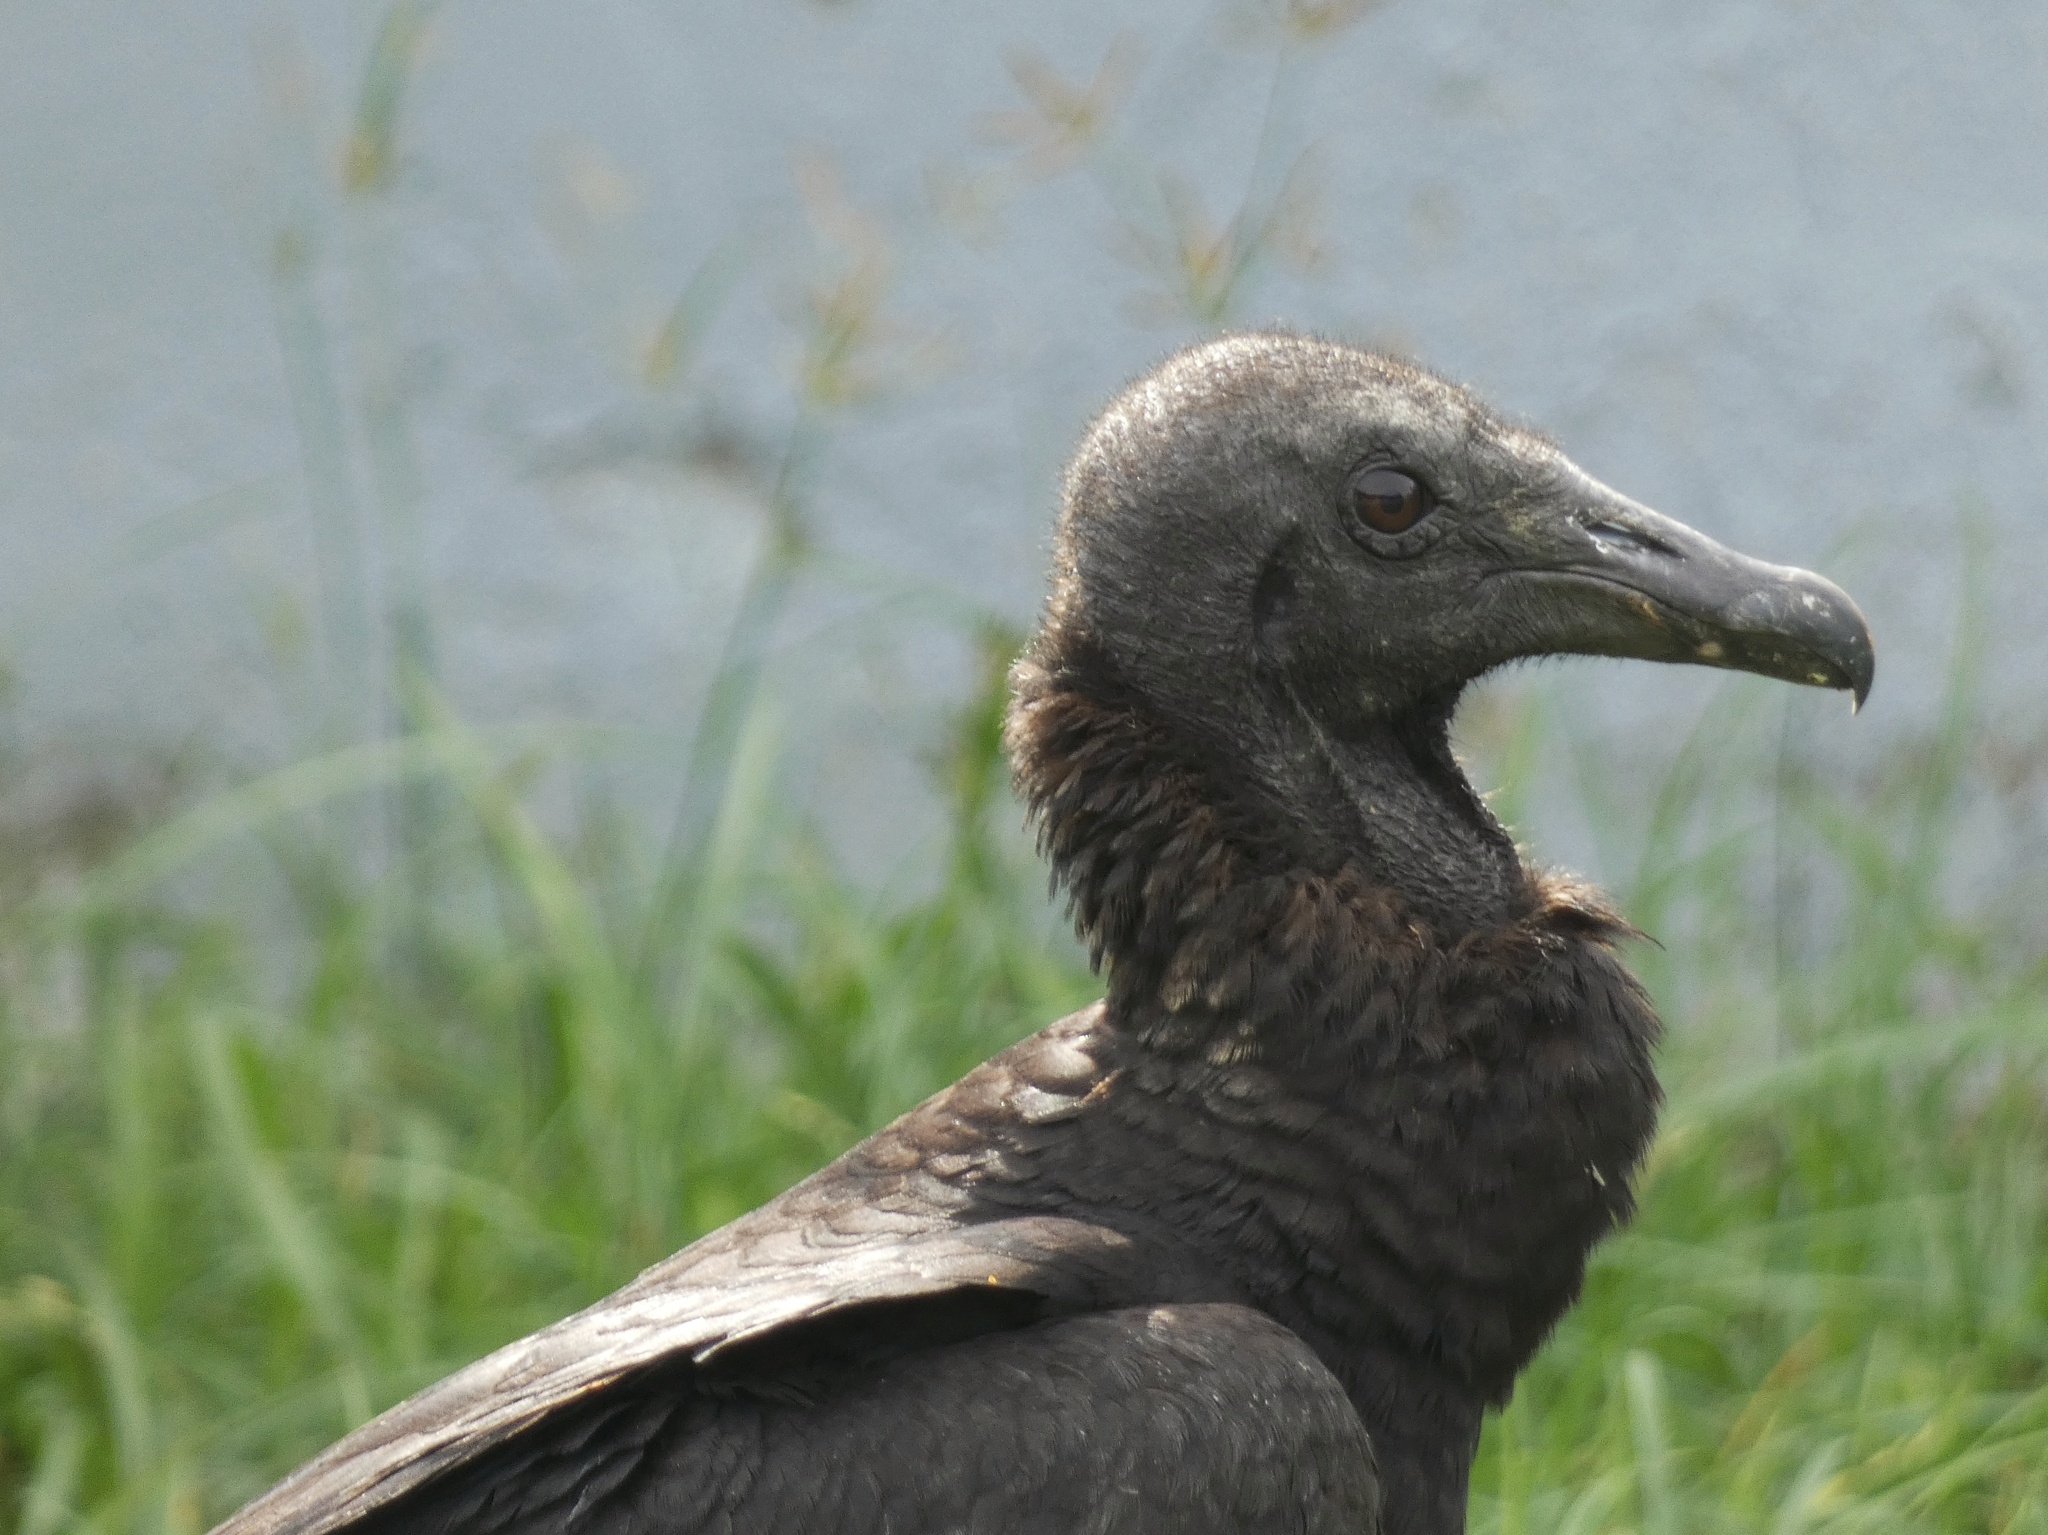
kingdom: Animalia
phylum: Chordata
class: Aves
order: Accipitriformes
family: Cathartidae
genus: Coragyps
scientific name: Coragyps atratus
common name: Black vulture
